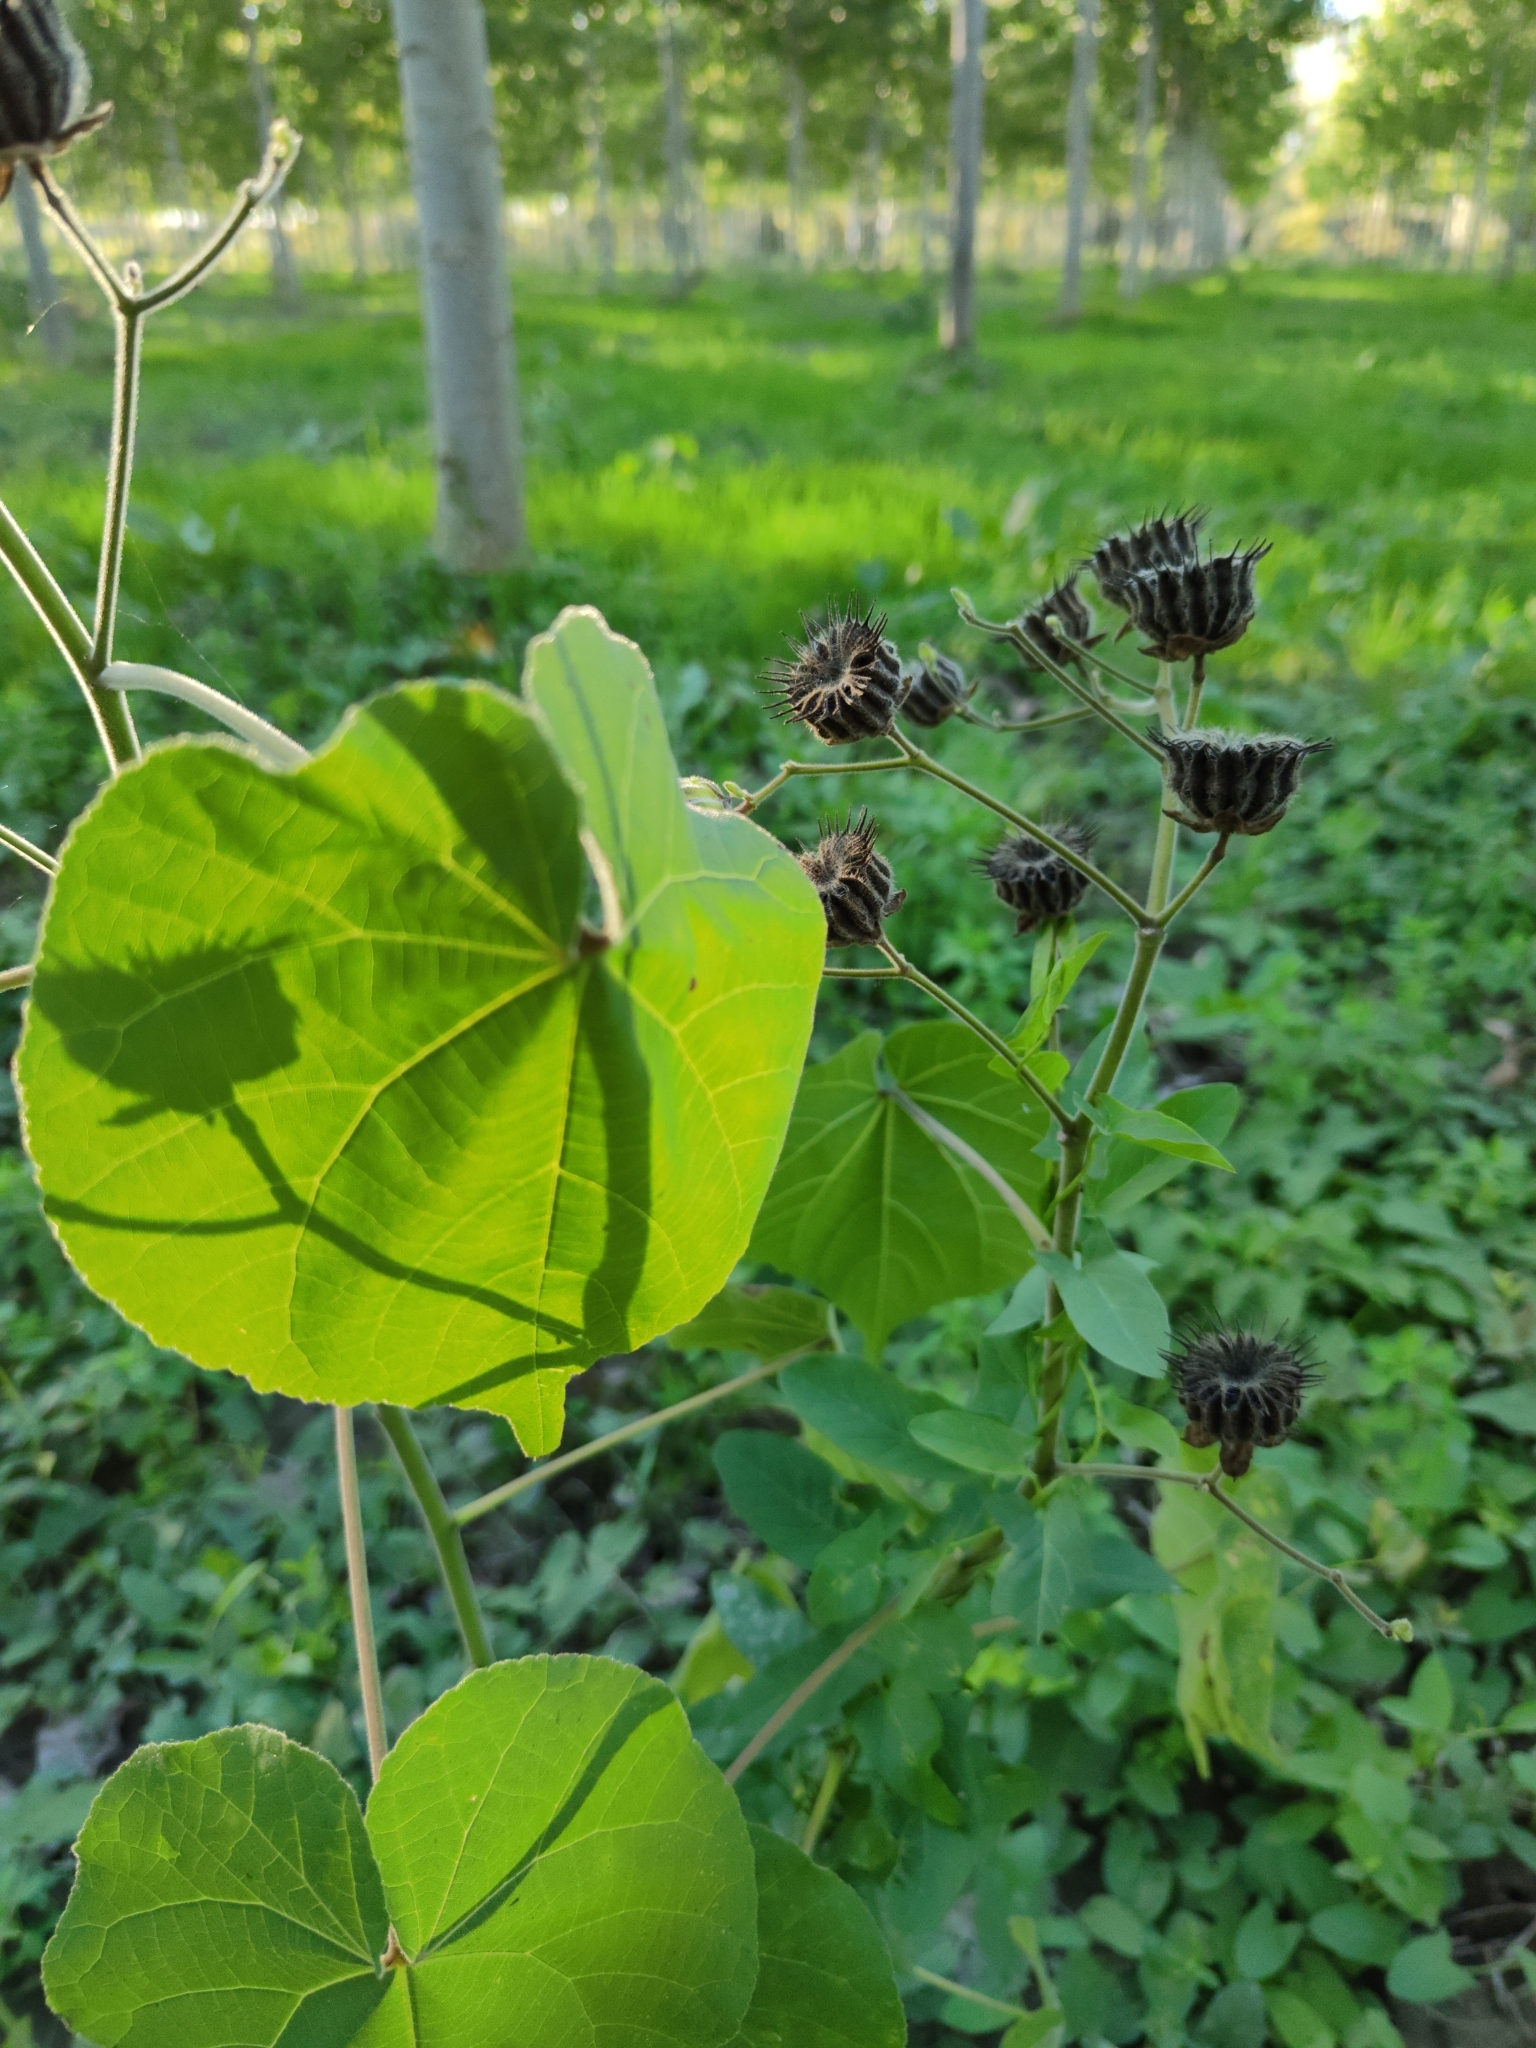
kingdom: Plantae
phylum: Tracheophyta
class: Magnoliopsida
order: Malvales
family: Malvaceae
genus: Abutilon
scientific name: Abutilon theophrasti
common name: Velvetleaf
